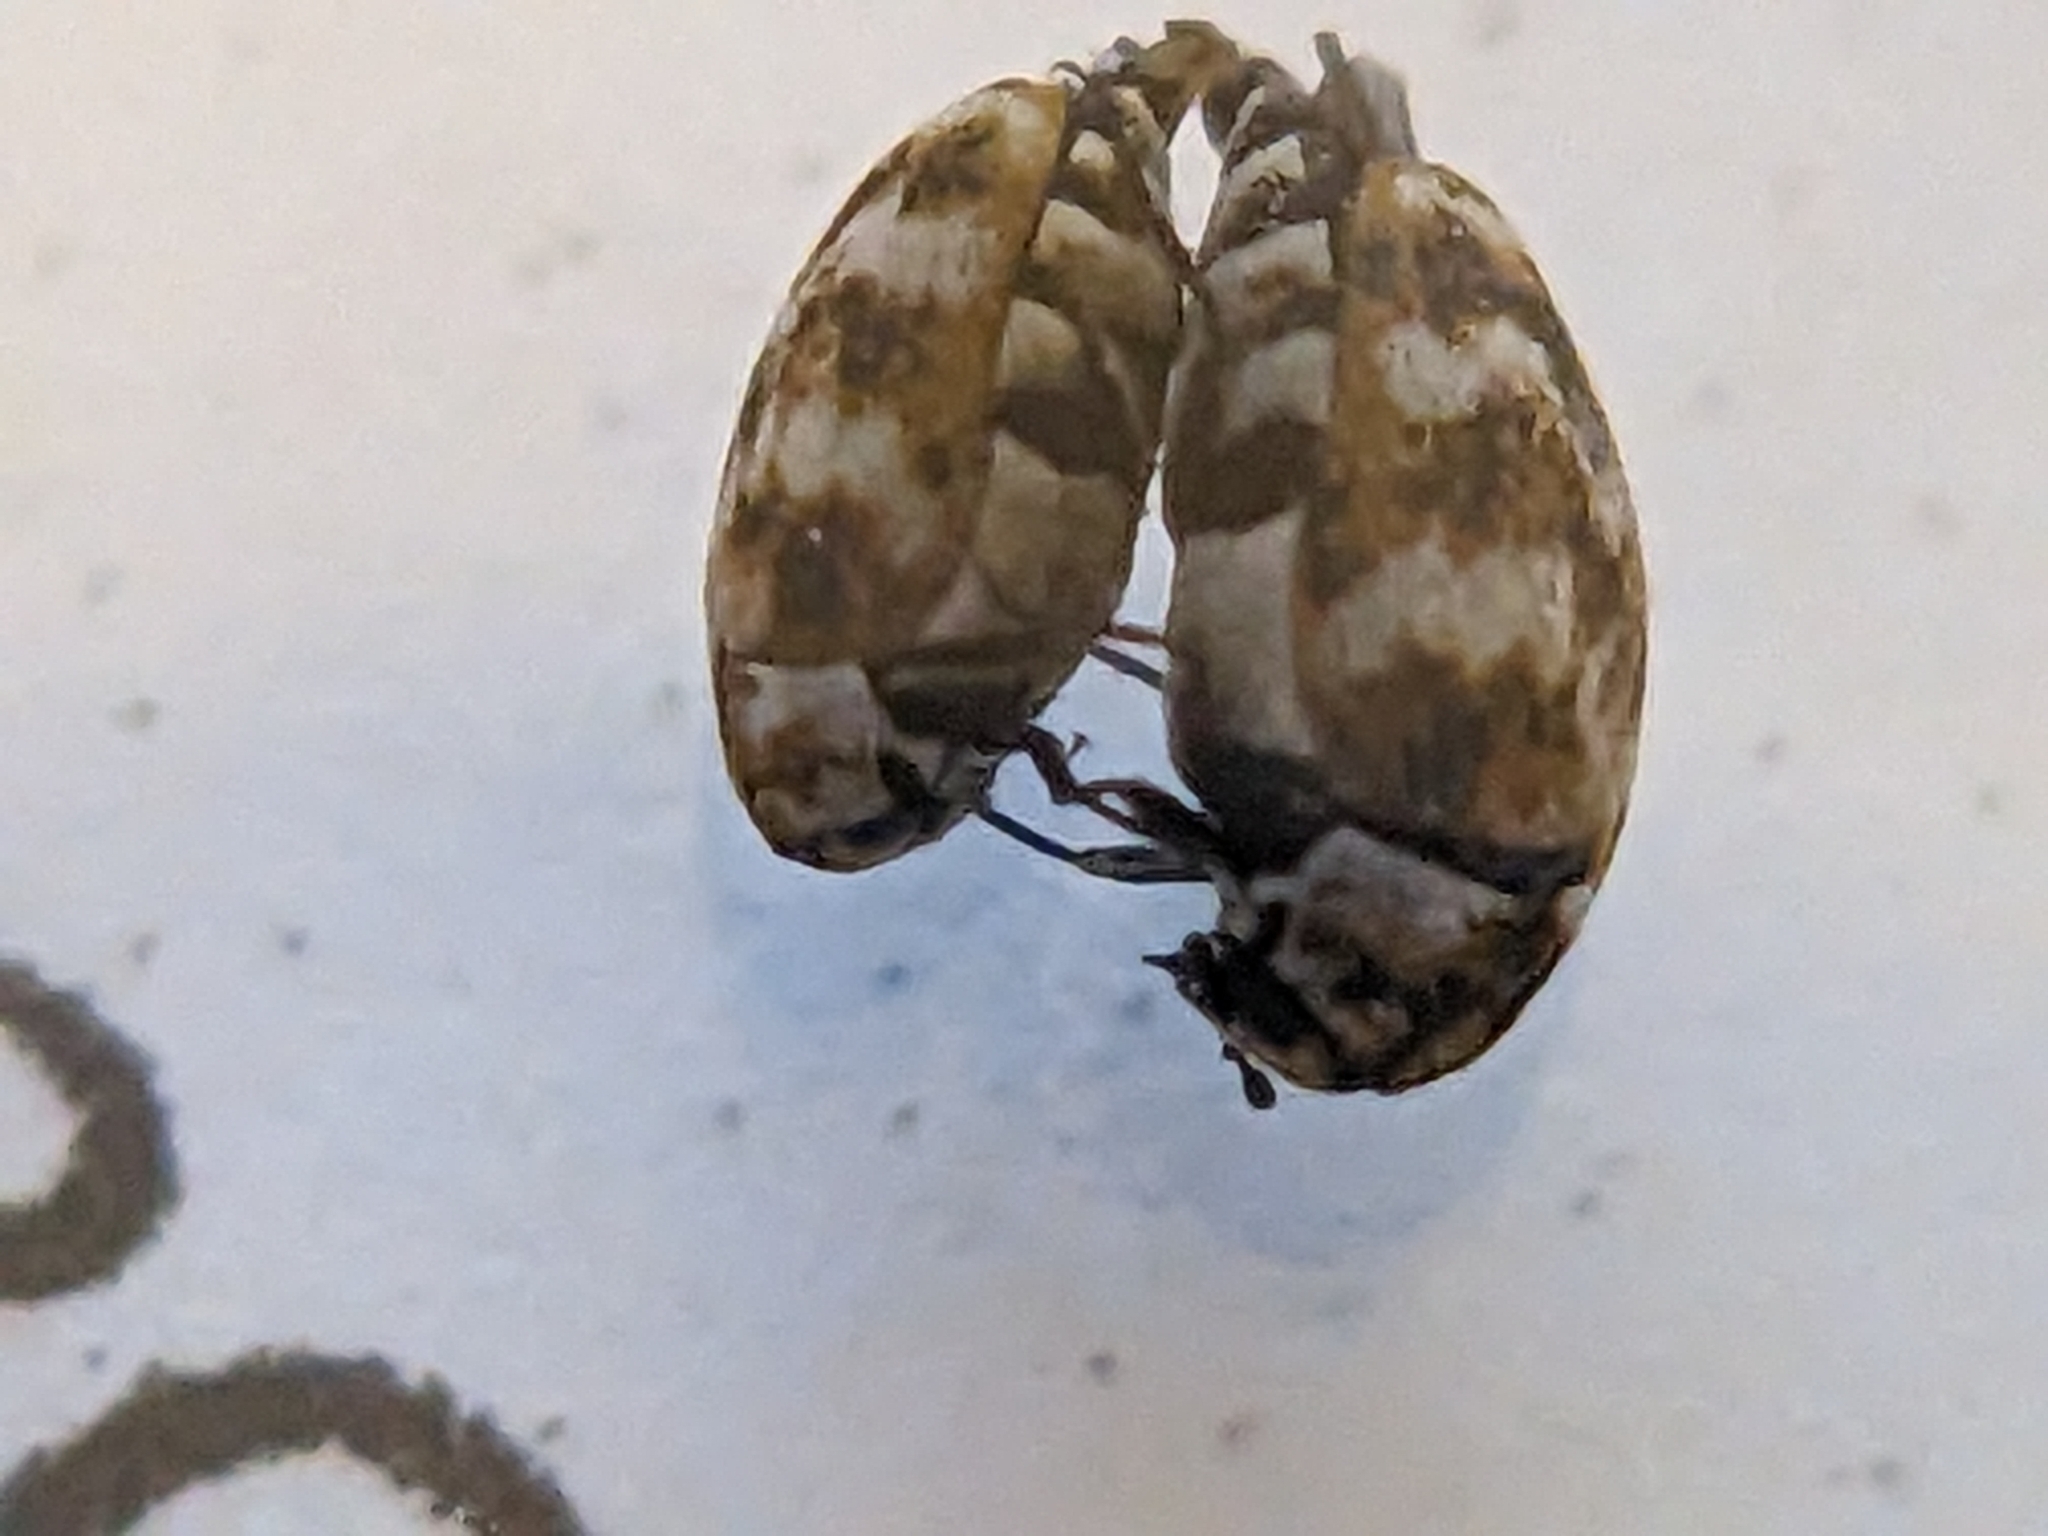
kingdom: Animalia
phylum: Arthropoda
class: Insecta
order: Coleoptera
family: Dermestidae
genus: Anthrenus
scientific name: Anthrenus verbasci
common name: Varied carpet beetle
